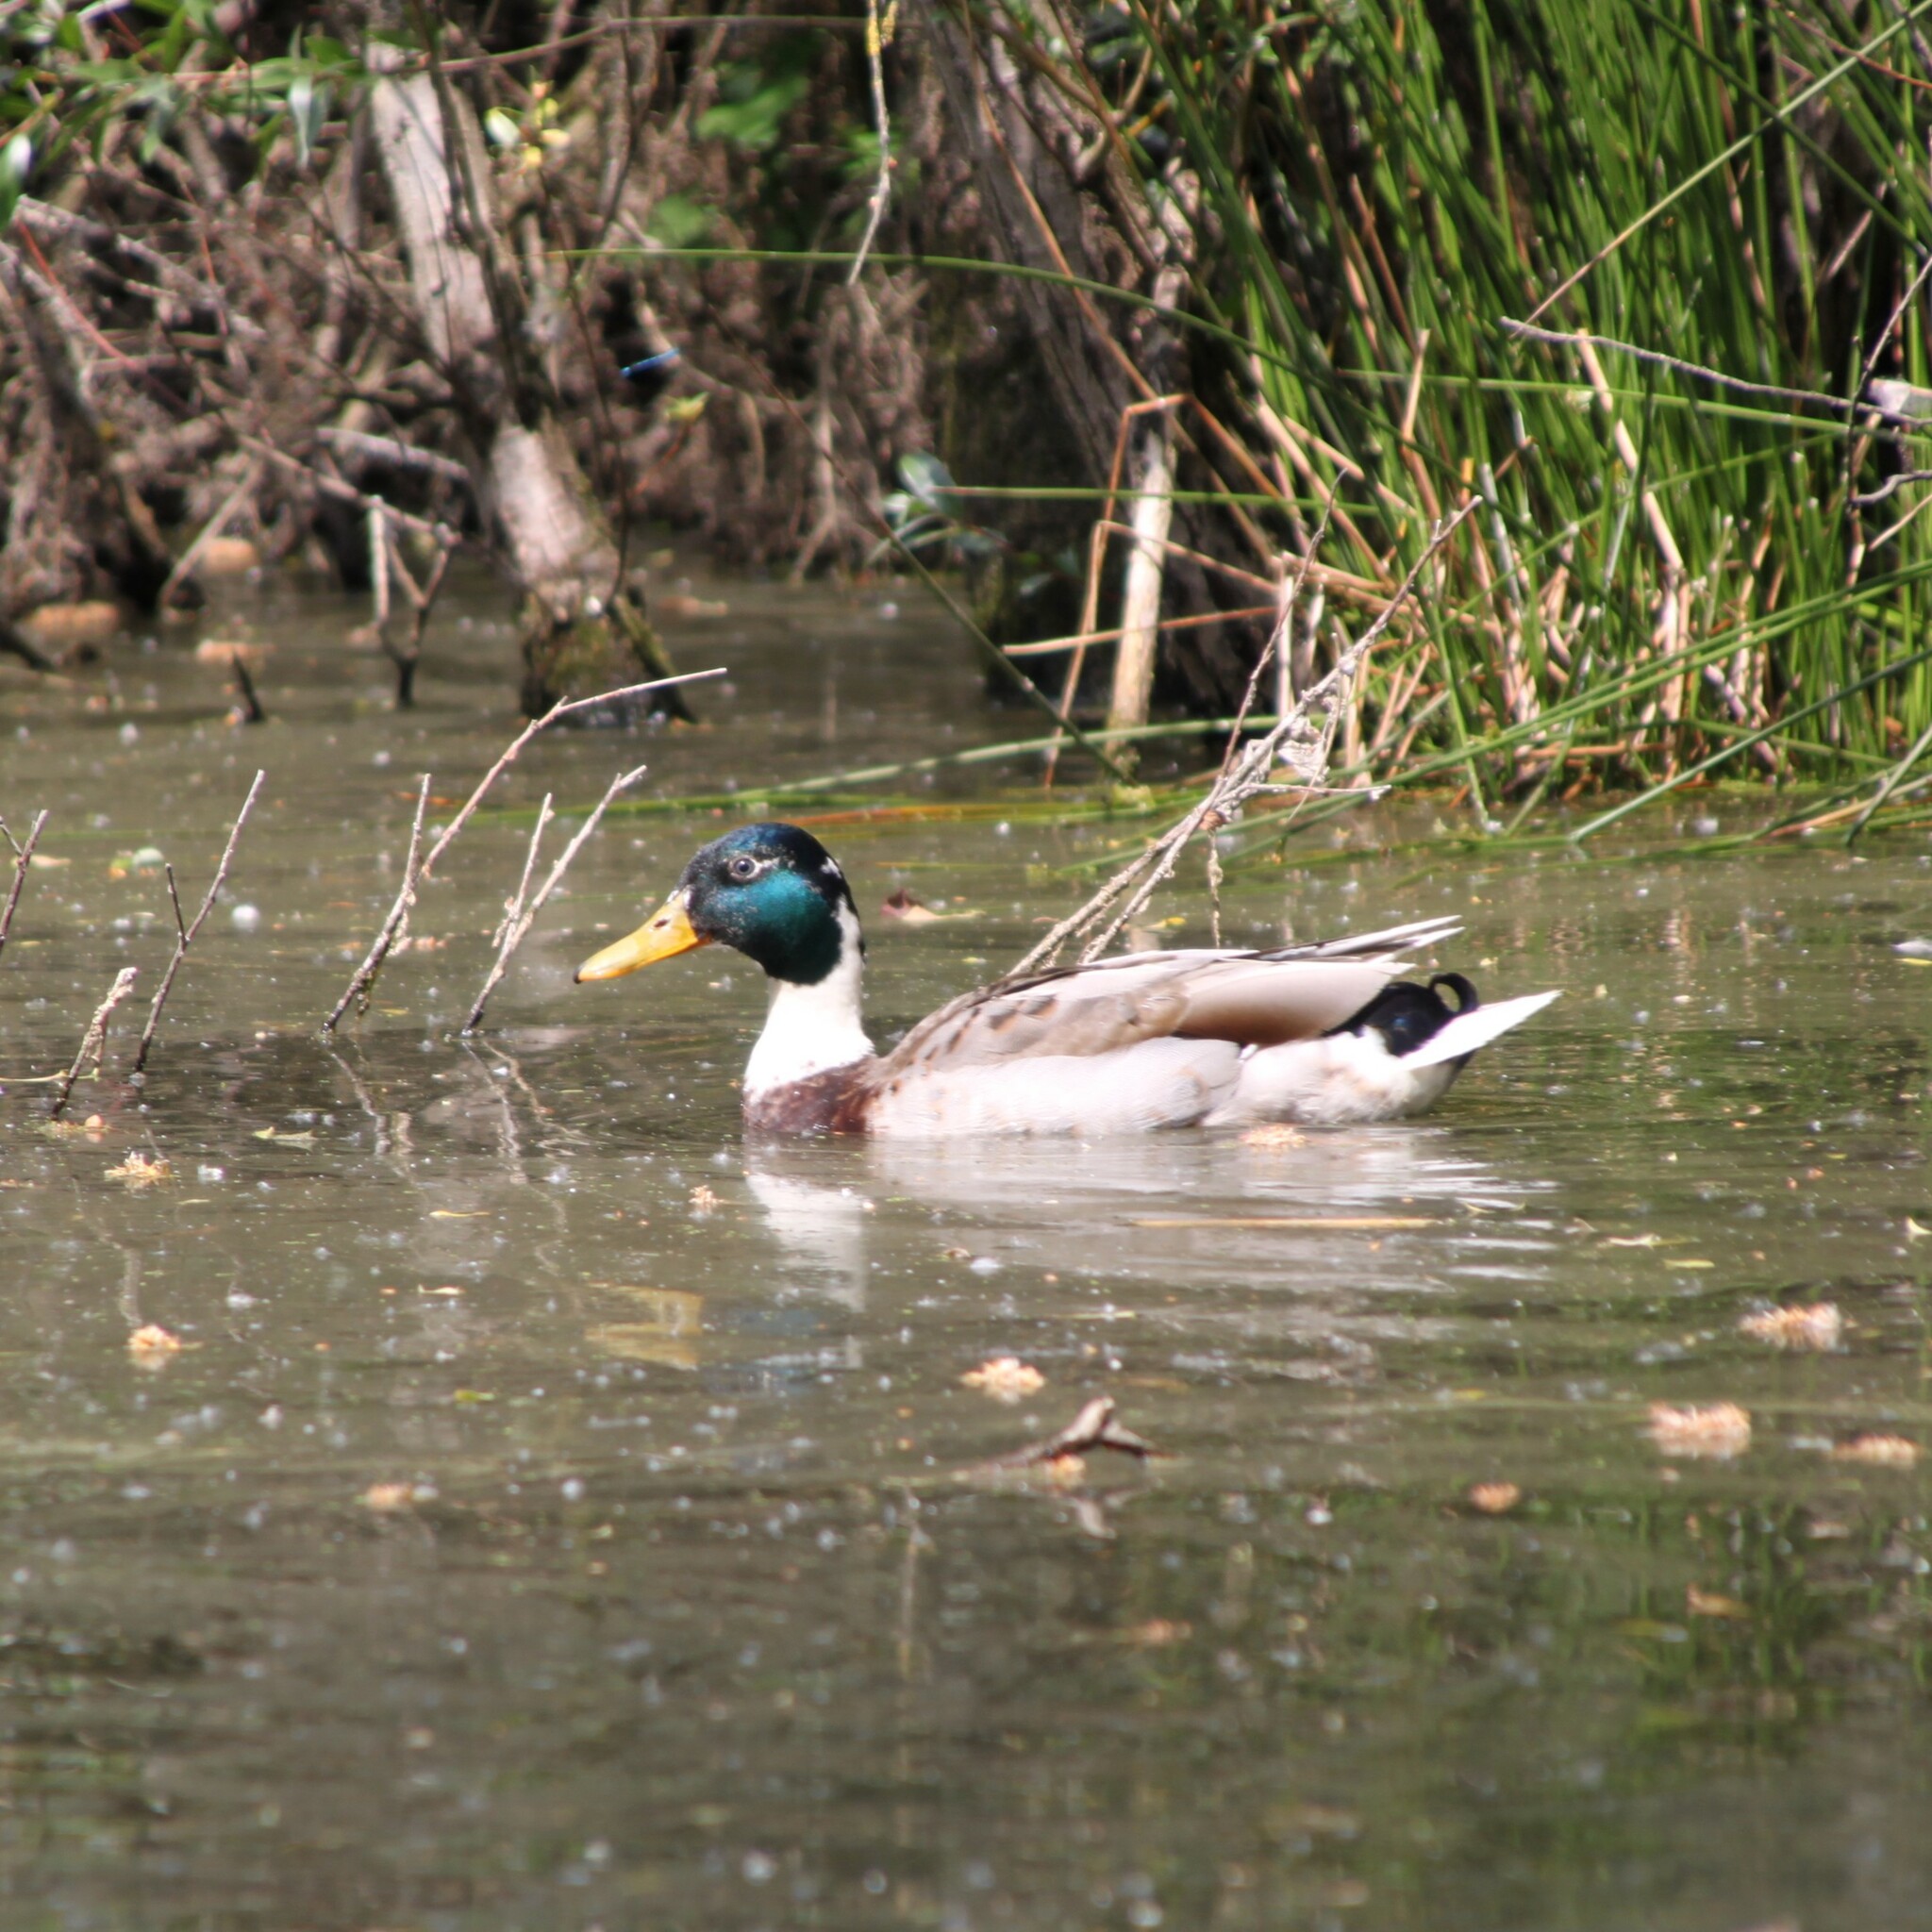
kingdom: Animalia
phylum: Chordata
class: Aves
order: Anseriformes
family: Anatidae
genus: Anas
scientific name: Anas platyrhynchos
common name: Mallard
